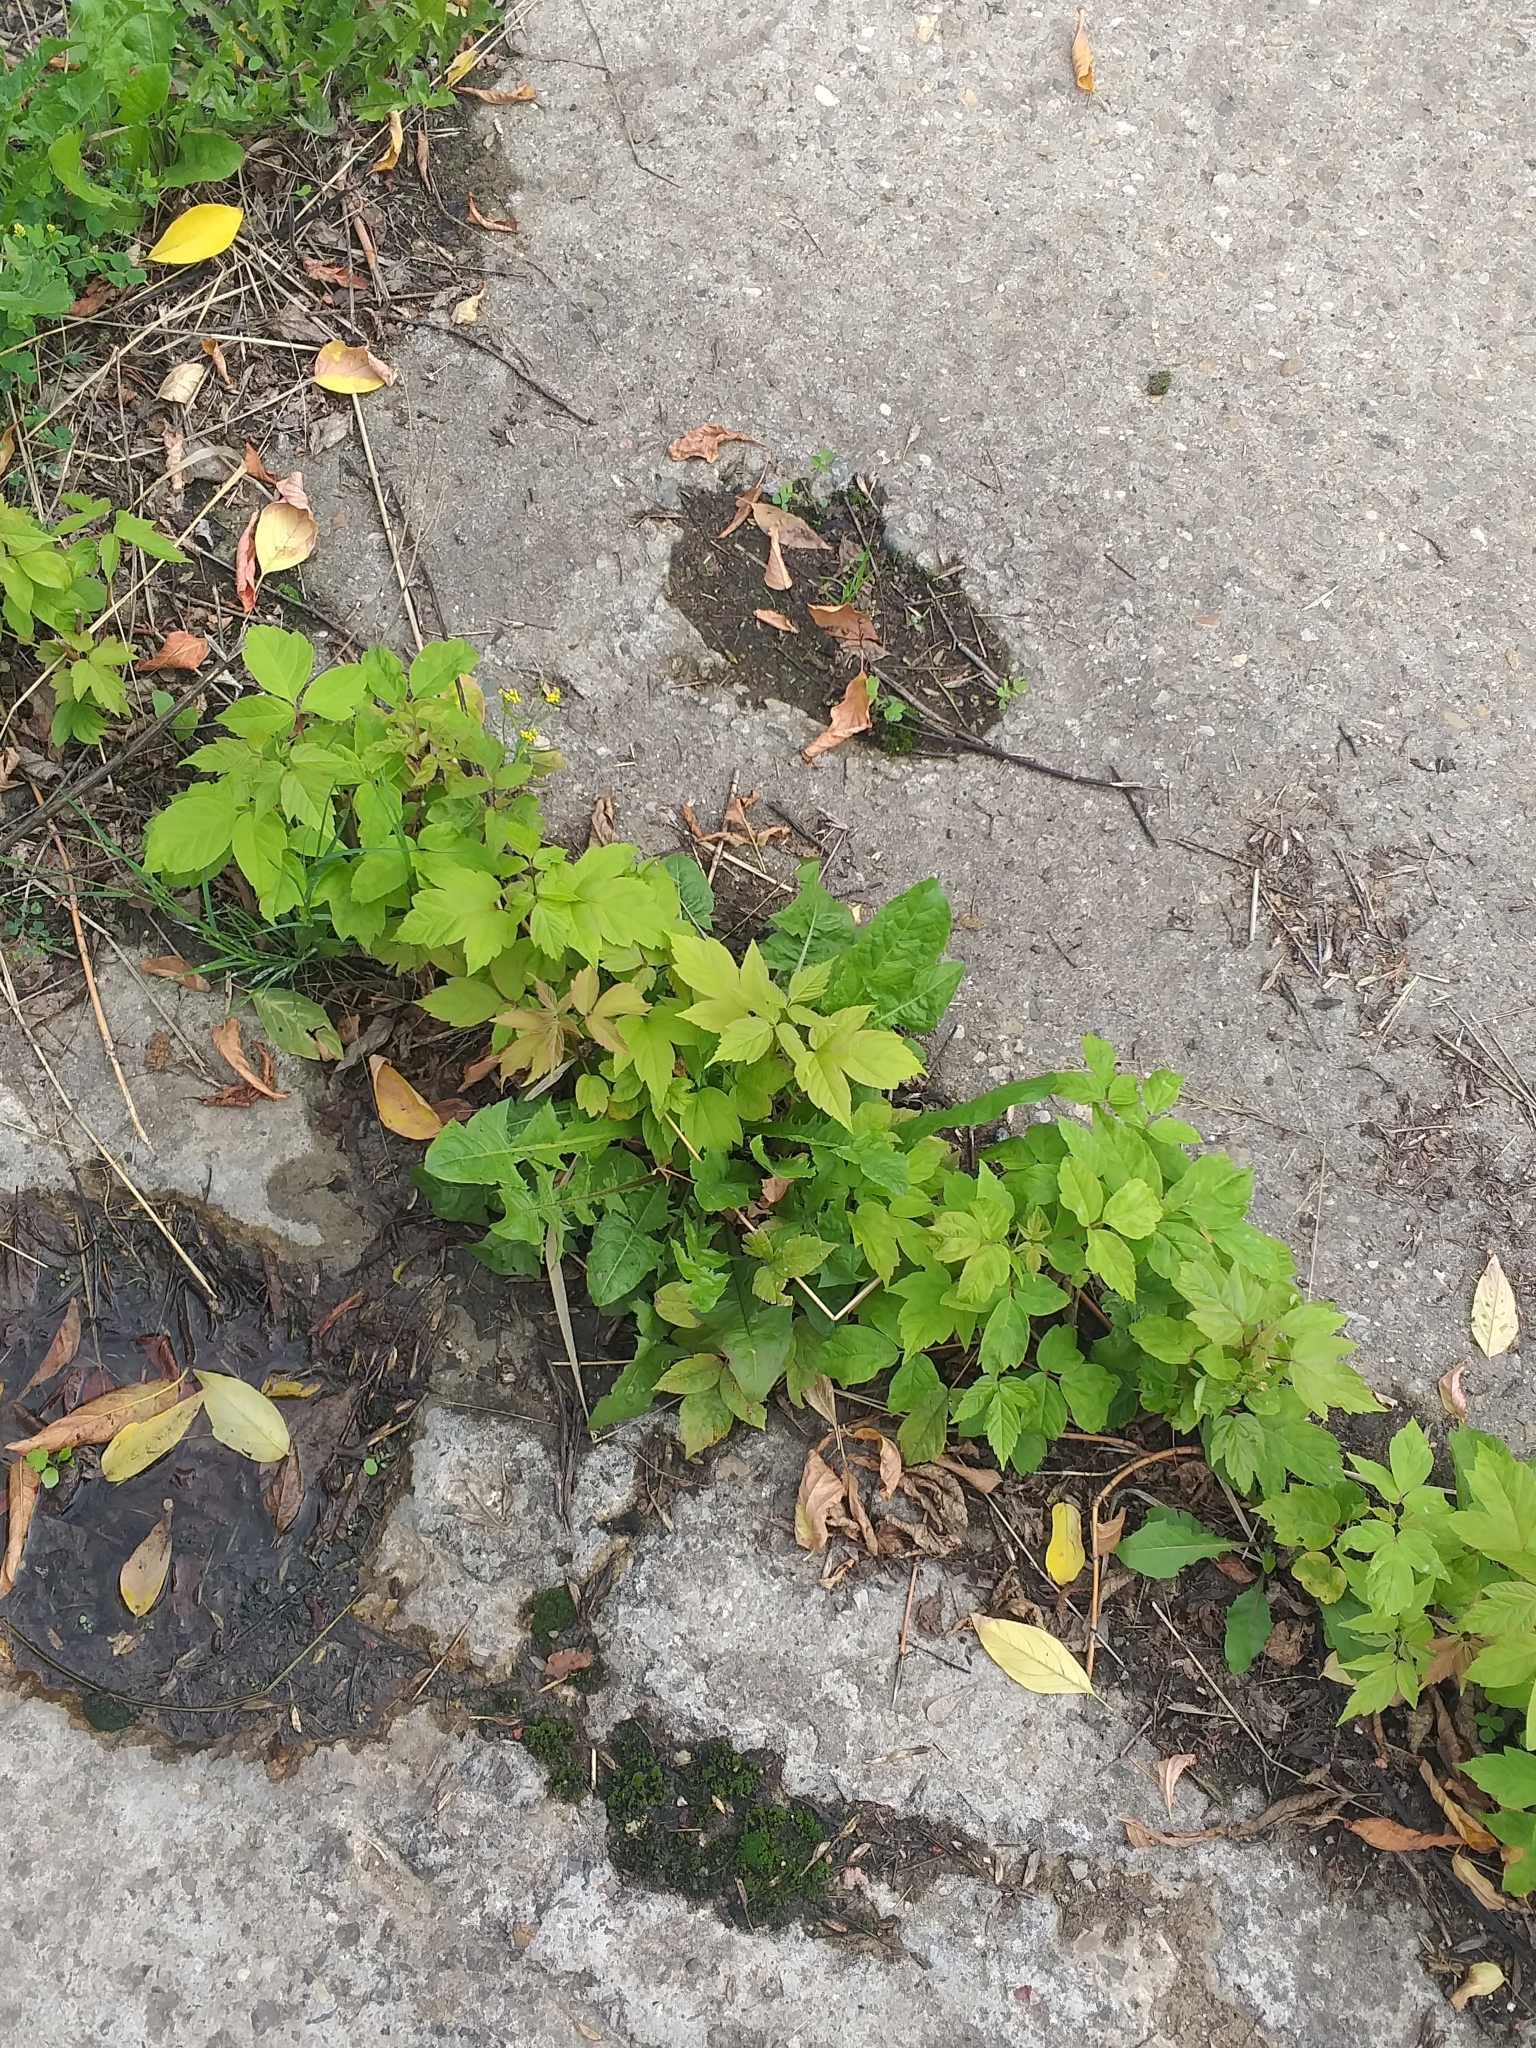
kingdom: Plantae
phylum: Tracheophyta
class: Magnoliopsida
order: Sapindales
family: Sapindaceae
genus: Acer
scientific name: Acer negundo
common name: Ashleaf maple
